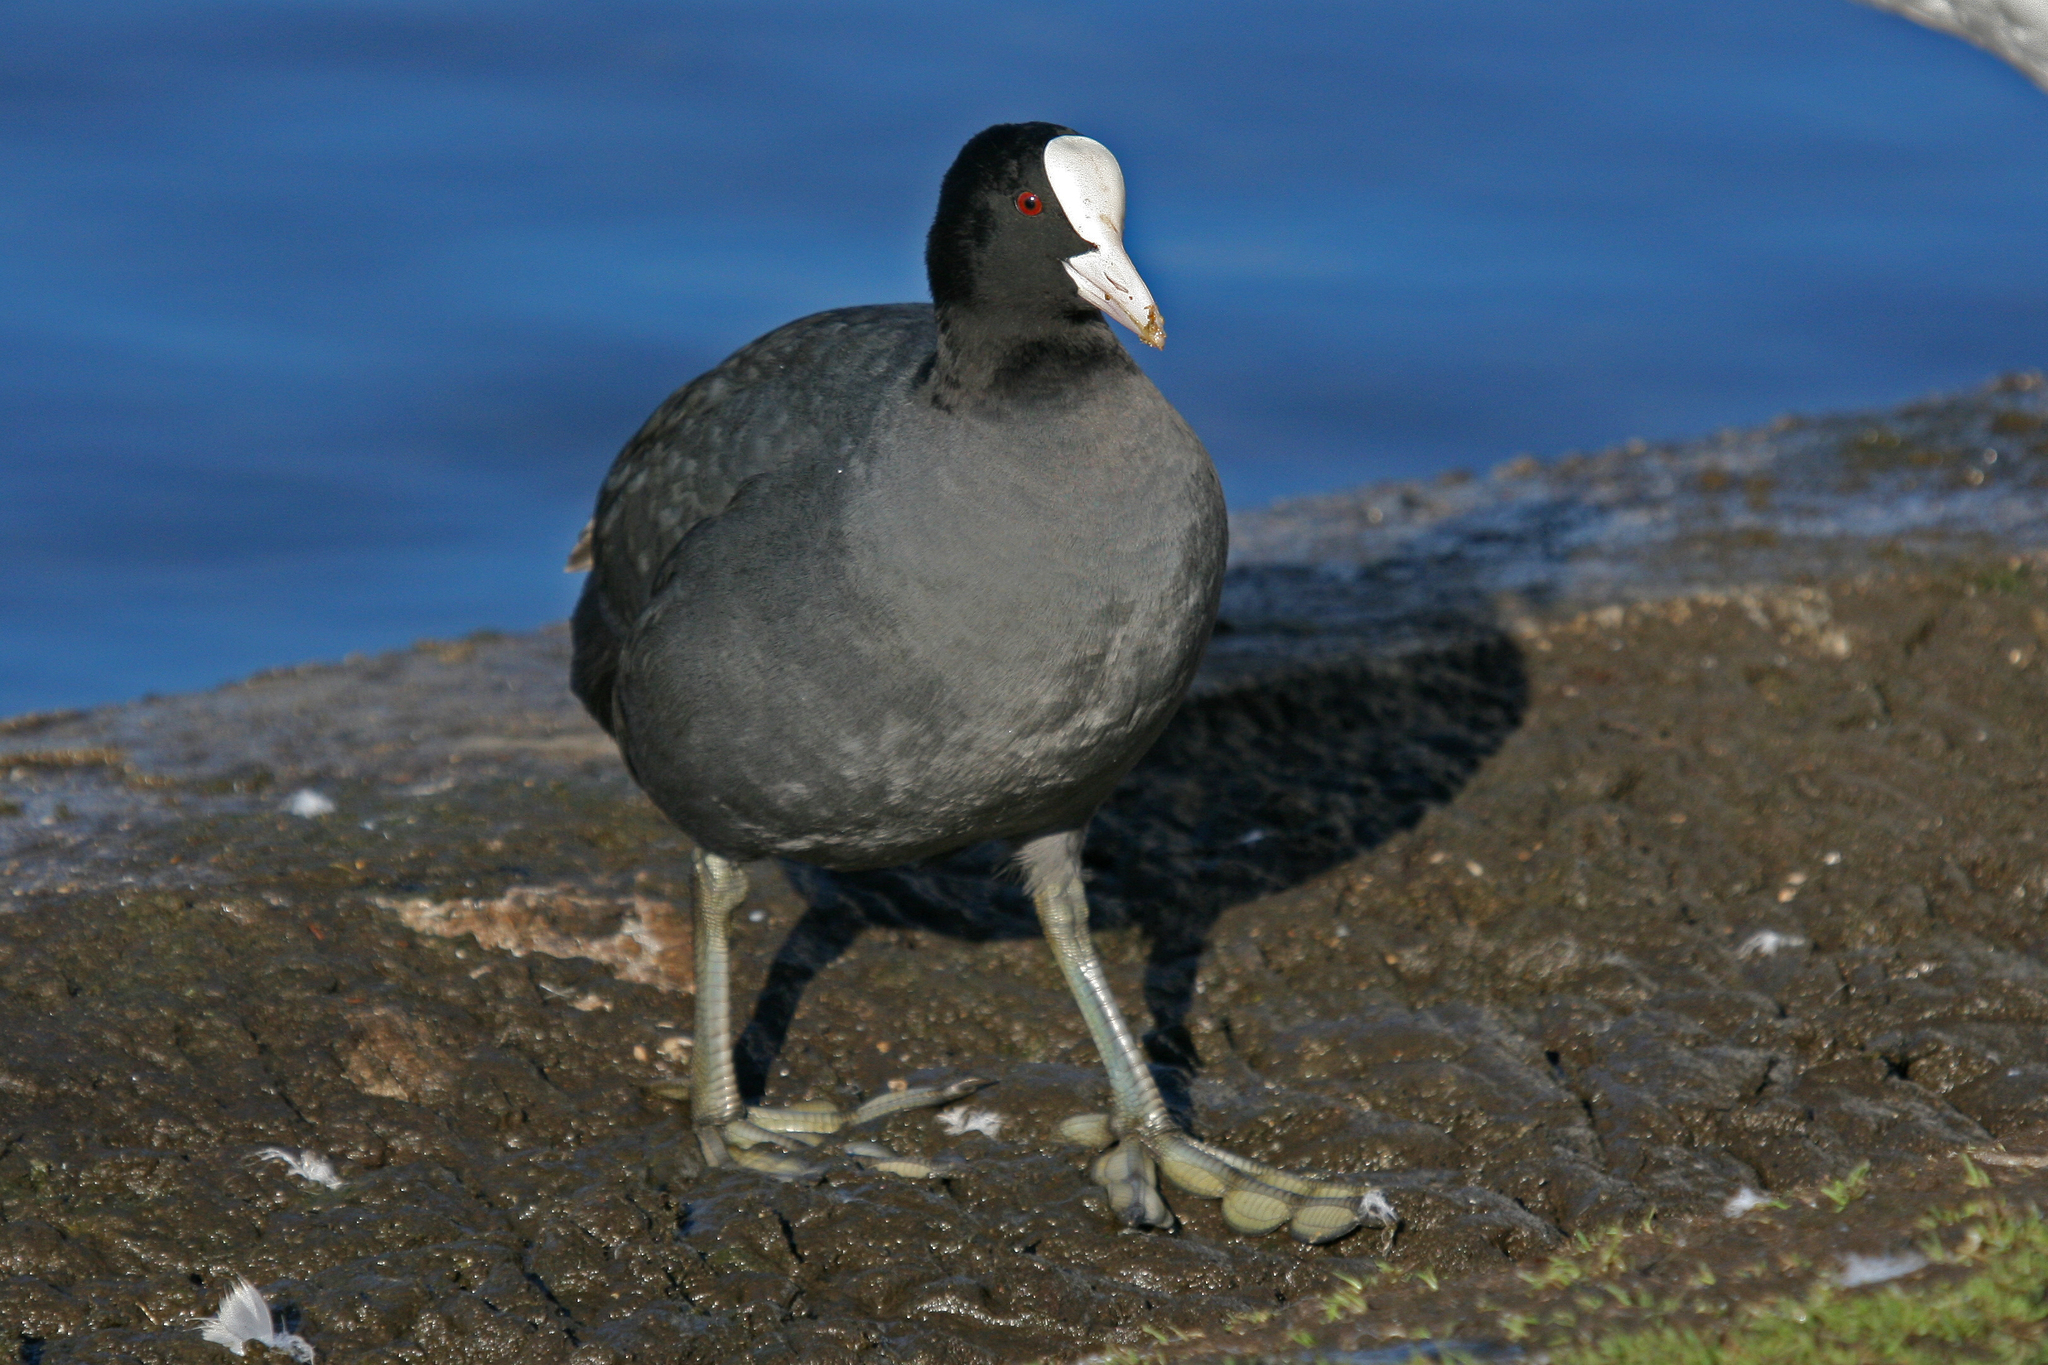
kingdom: Animalia
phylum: Chordata
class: Aves
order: Gruiformes
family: Rallidae
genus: Fulica
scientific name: Fulica atra
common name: Eurasian coot
